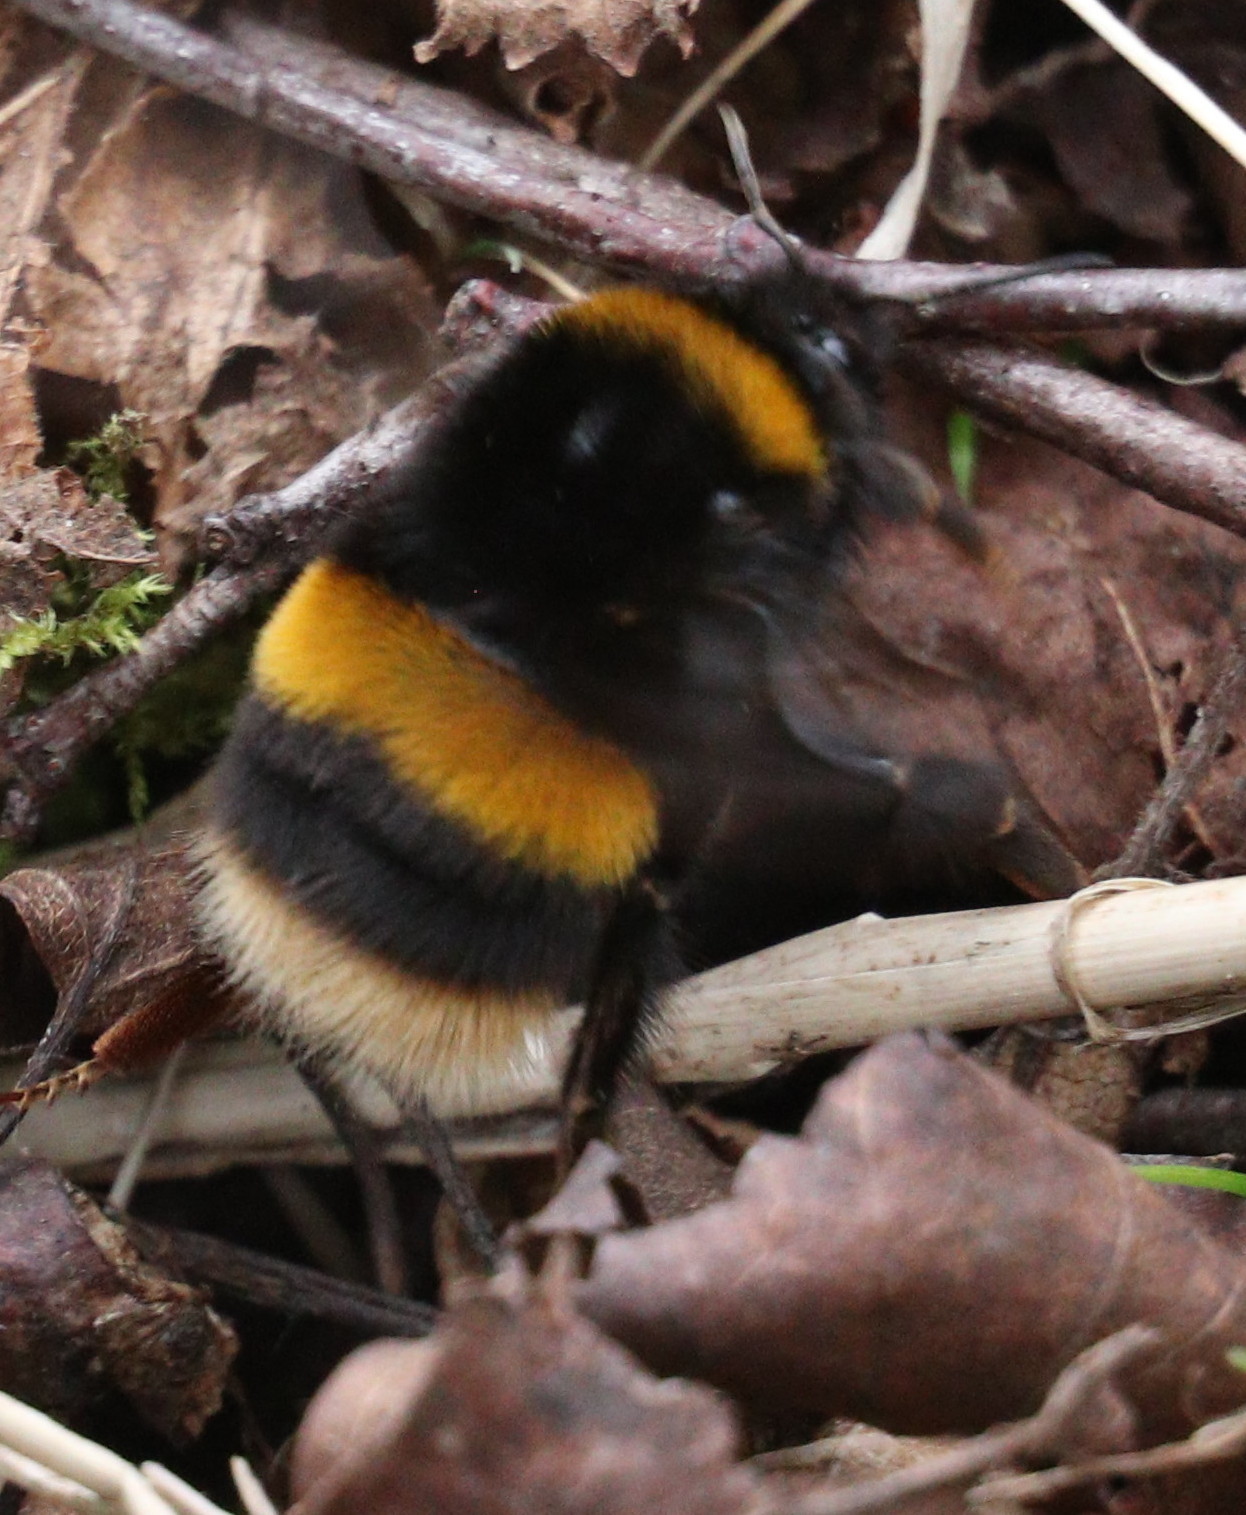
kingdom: Animalia
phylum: Arthropoda
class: Insecta
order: Hymenoptera
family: Apidae
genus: Bombus
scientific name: Bombus terrestris
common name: Buff-tailed bumblebee
